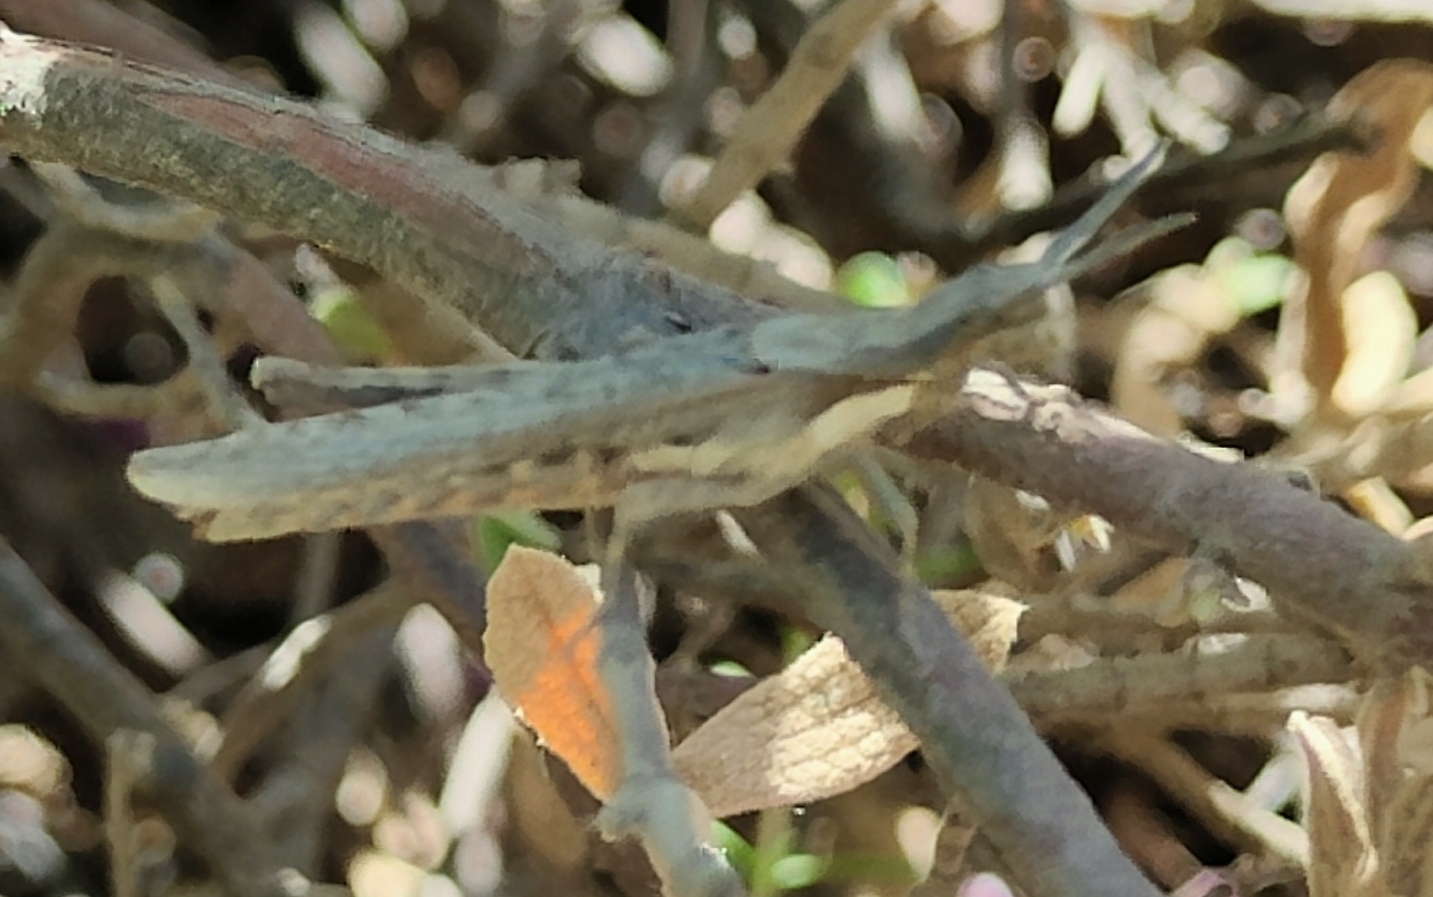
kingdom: Animalia
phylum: Arthropoda
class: Insecta
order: Orthoptera
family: Pyrgomorphidae
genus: Pyrgomorpha
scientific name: Pyrgomorpha conica
